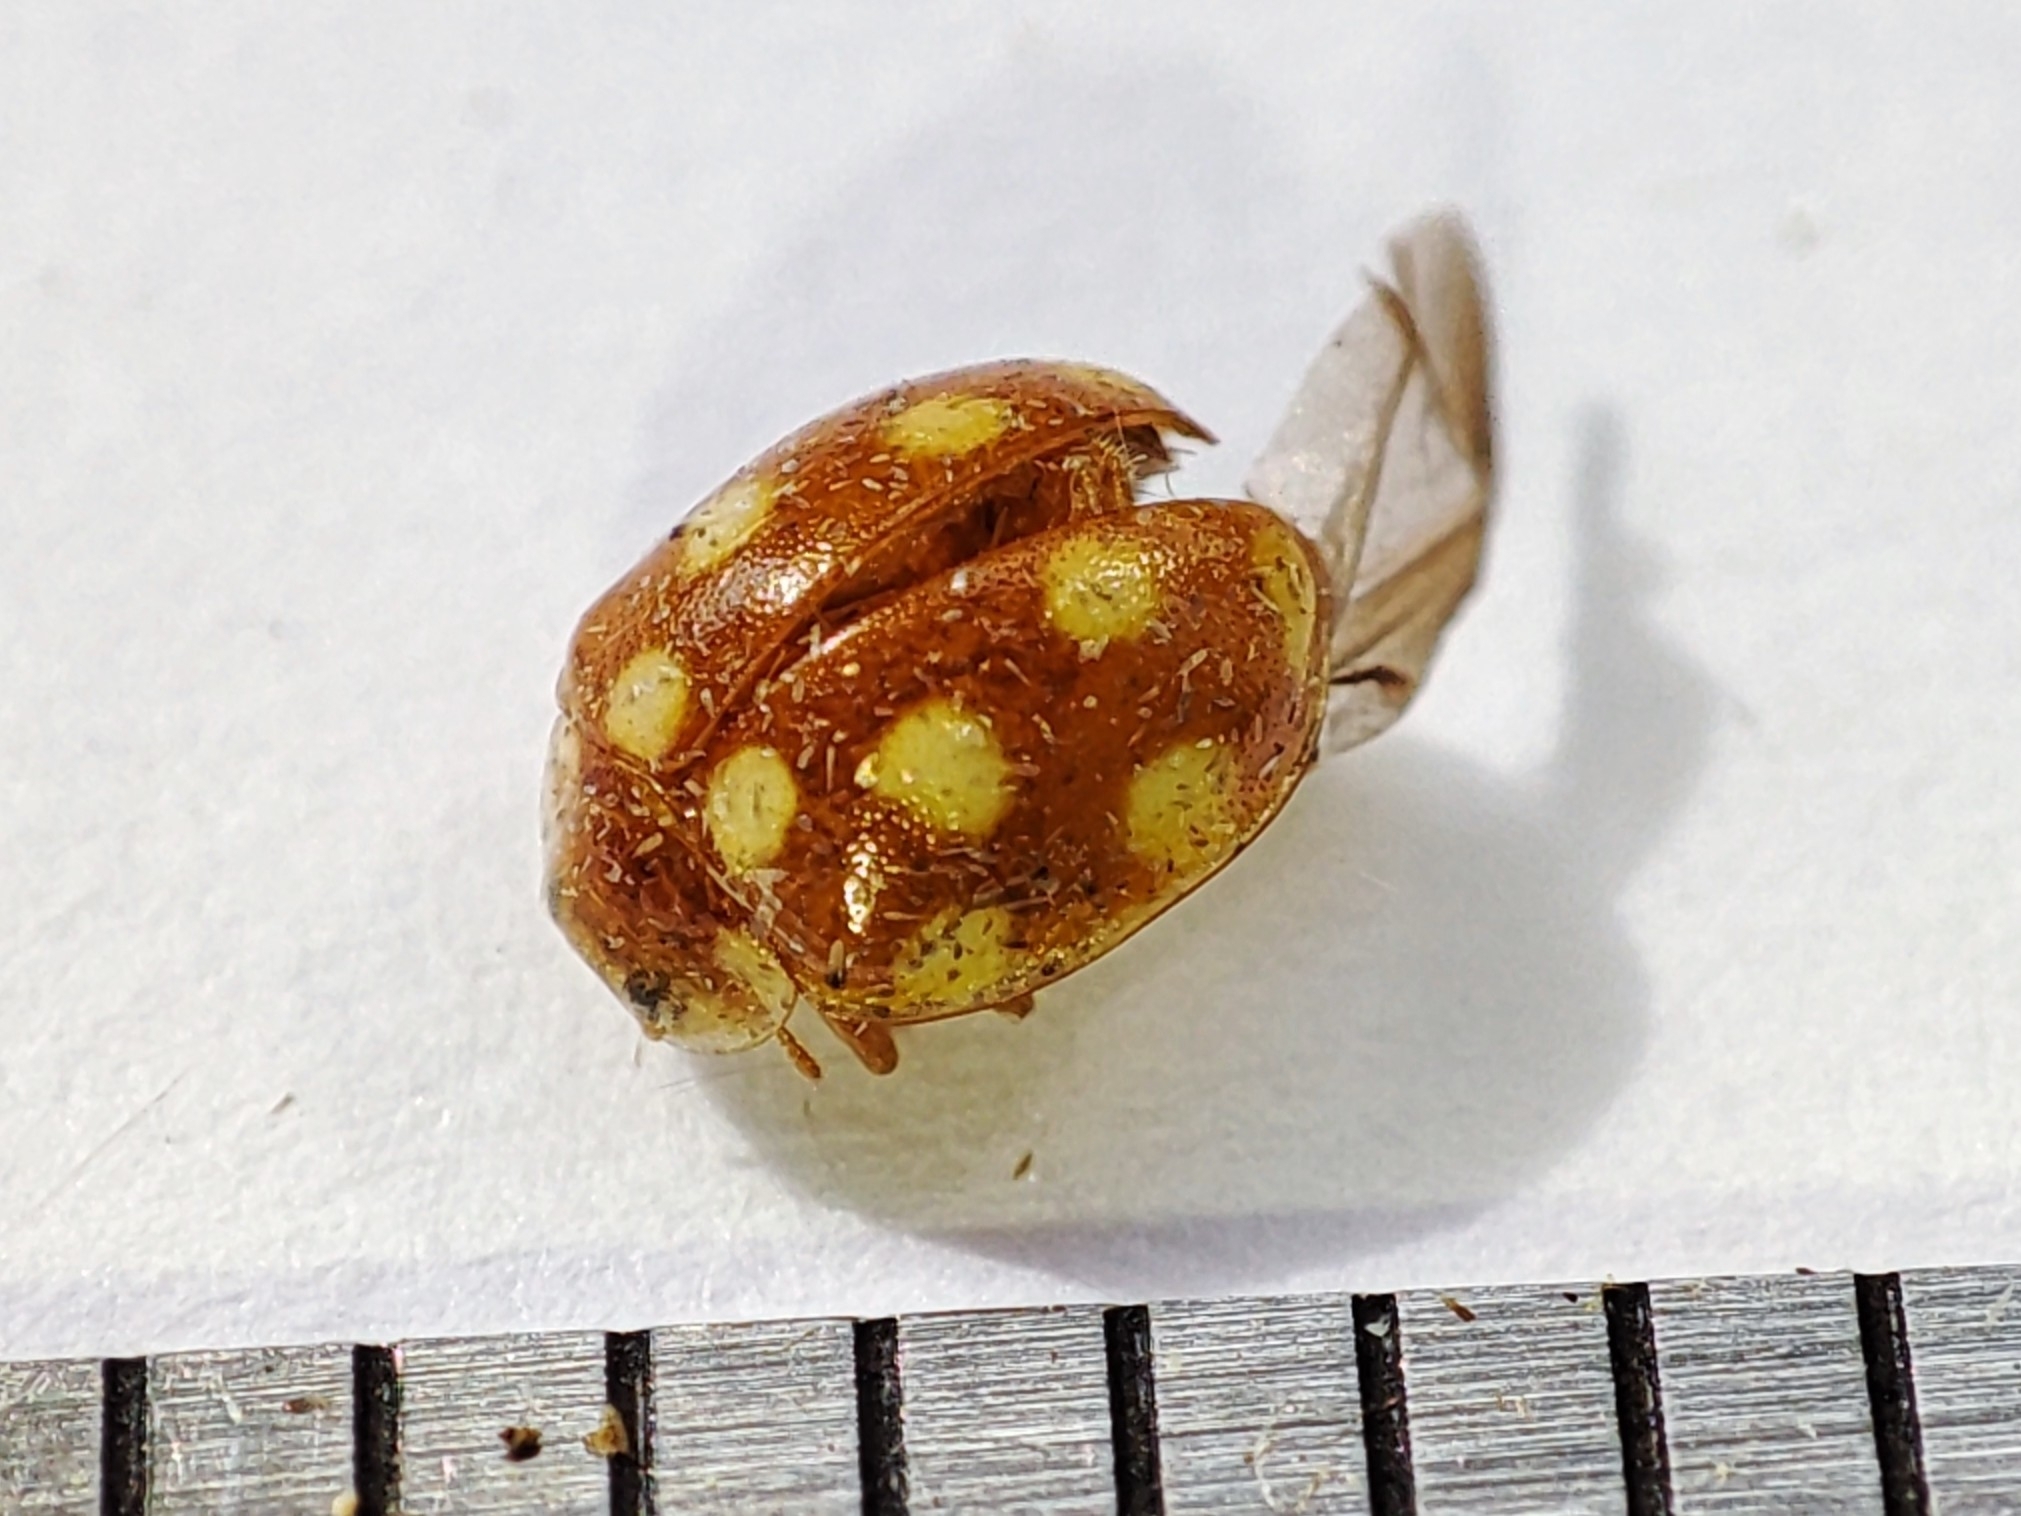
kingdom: Animalia
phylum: Arthropoda
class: Insecta
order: Coleoptera
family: Coccinellidae
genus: Vibidia
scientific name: Vibidia duodecimguttata
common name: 12-spot ladybird
